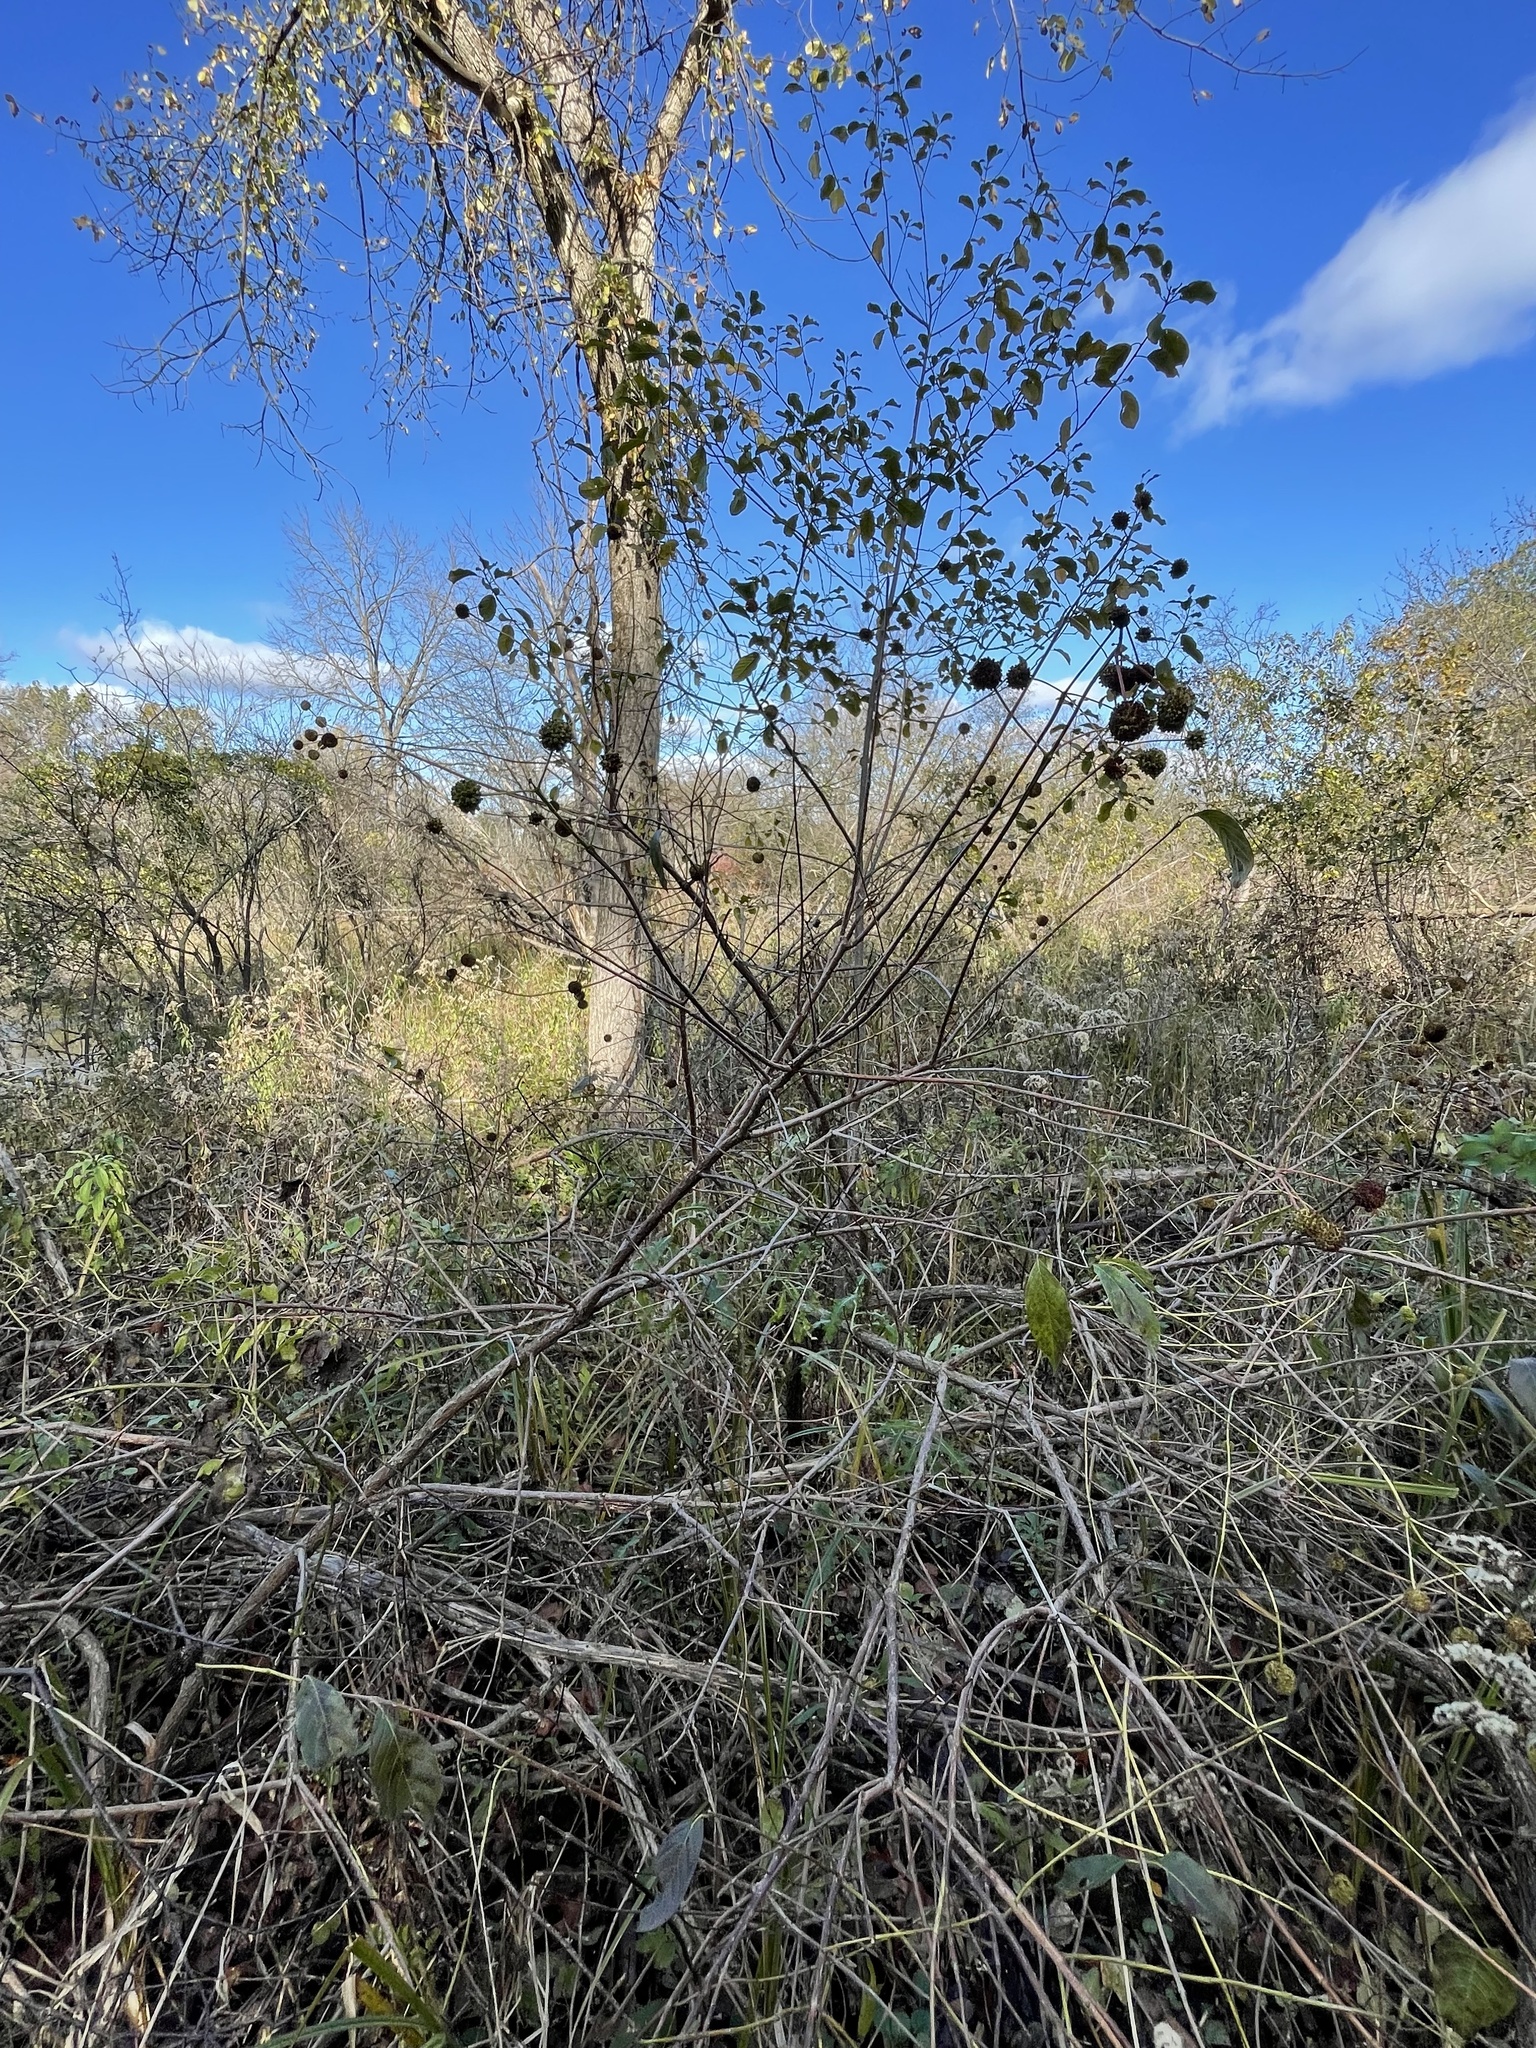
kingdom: Plantae
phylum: Tracheophyta
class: Magnoliopsida
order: Gentianales
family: Rubiaceae
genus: Cephalanthus
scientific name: Cephalanthus occidentalis
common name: Button-willow
